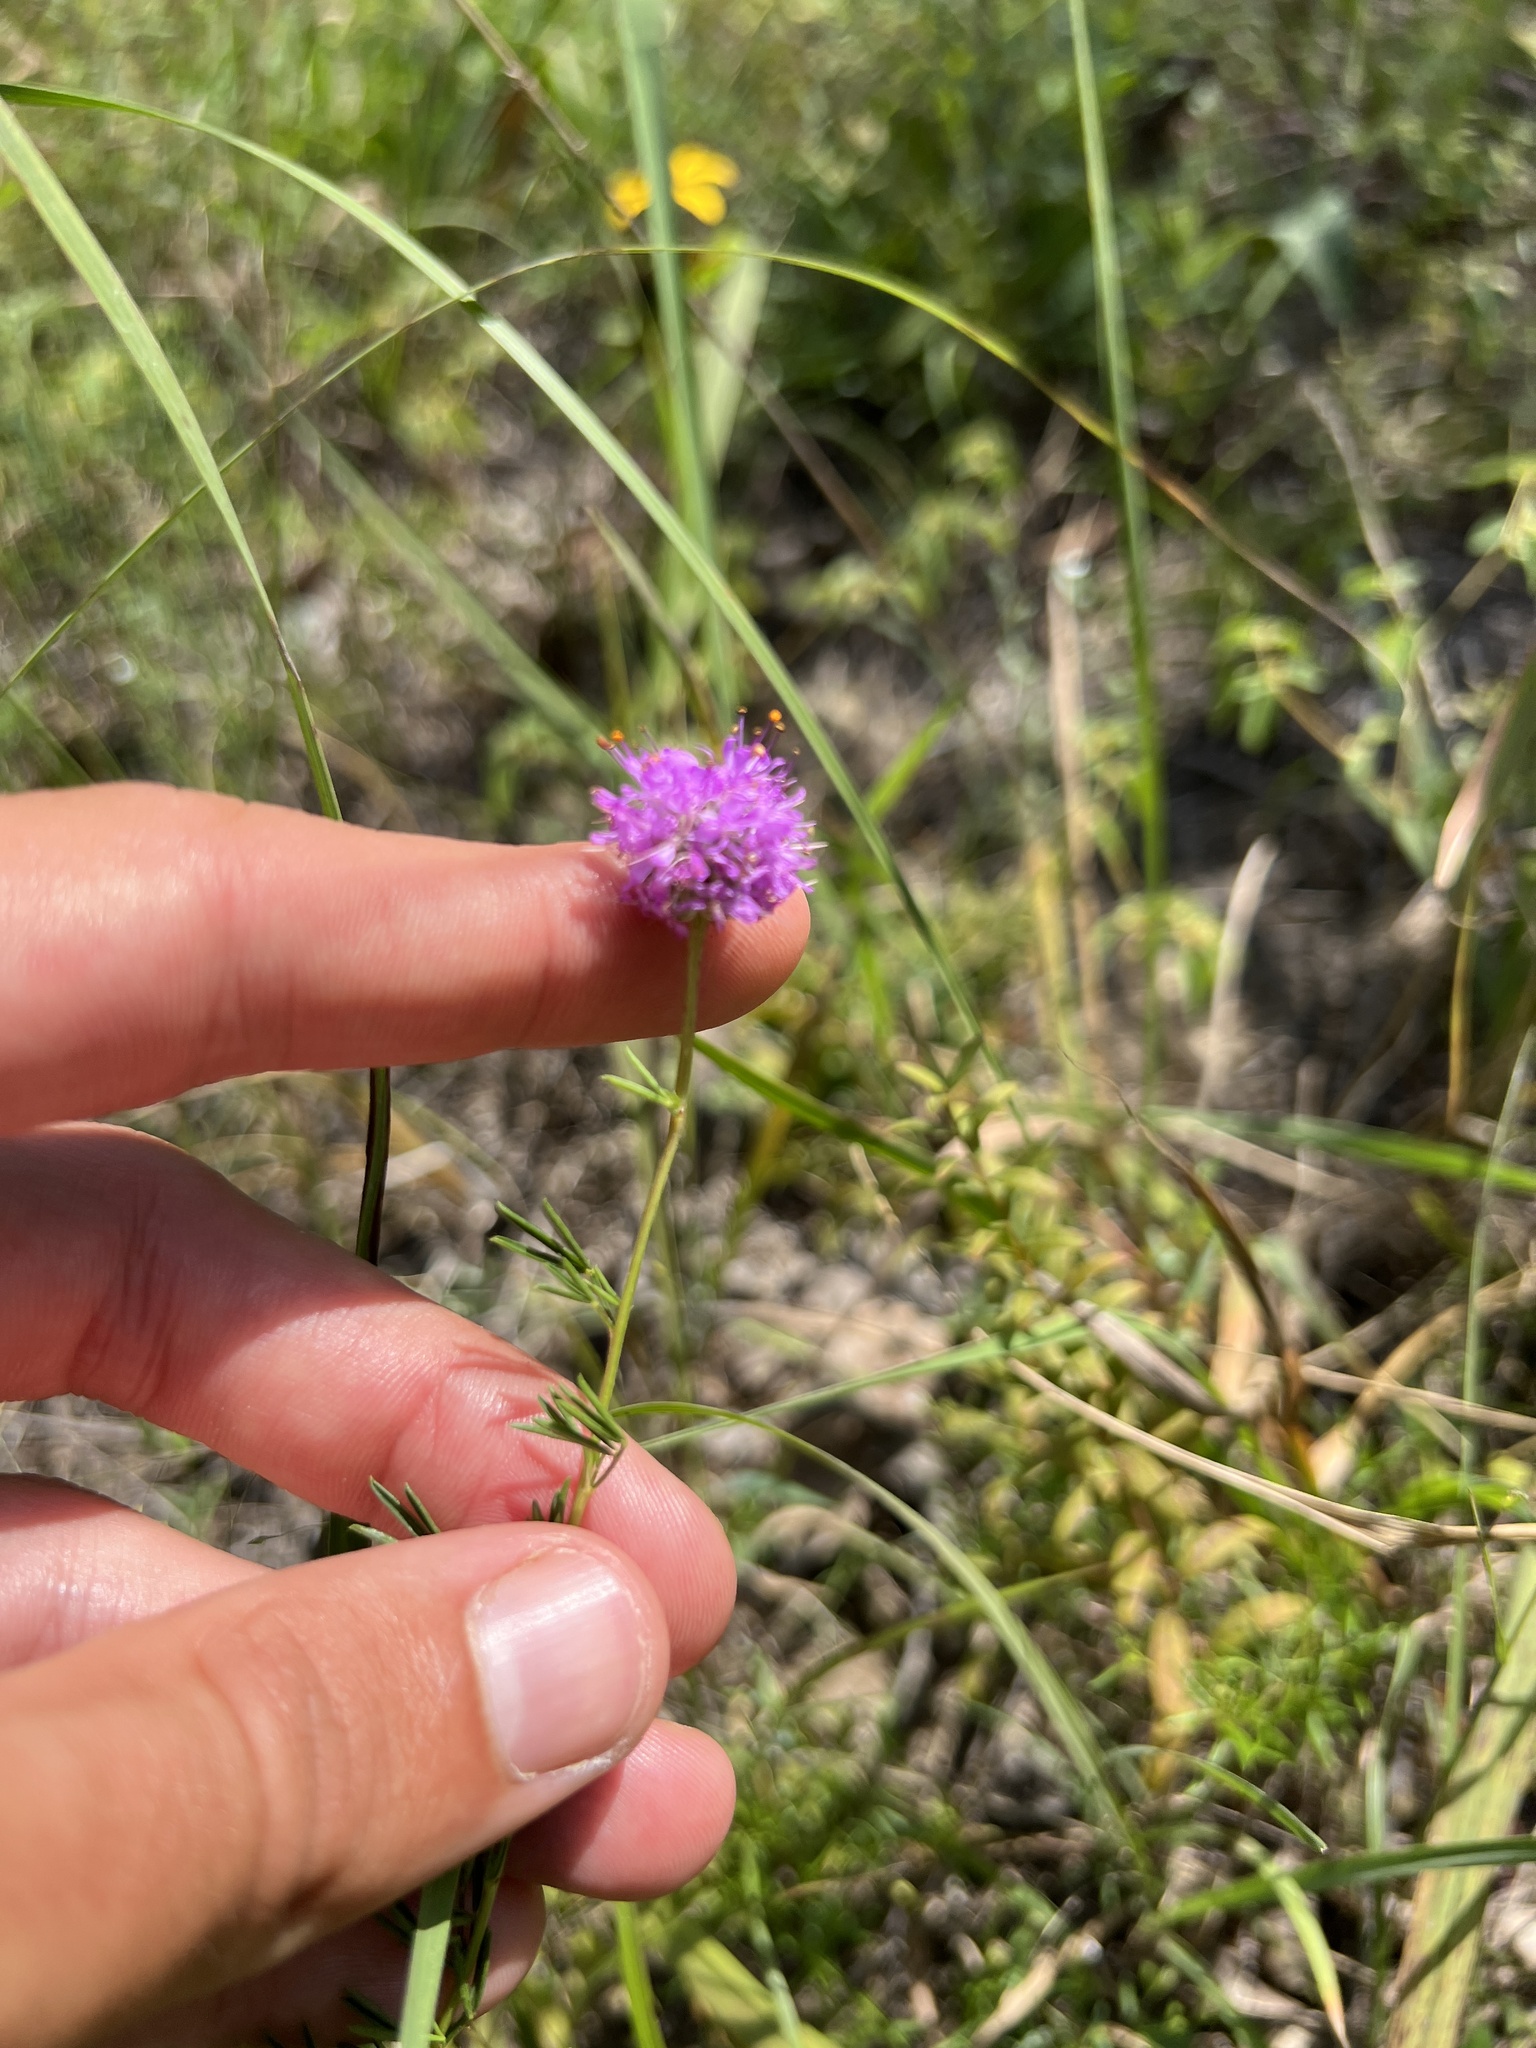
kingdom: Plantae
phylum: Tracheophyta
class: Magnoliopsida
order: Fabales
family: Fabaceae
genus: Dalea
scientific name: Dalea purpurea
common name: Purple prairie-clover
